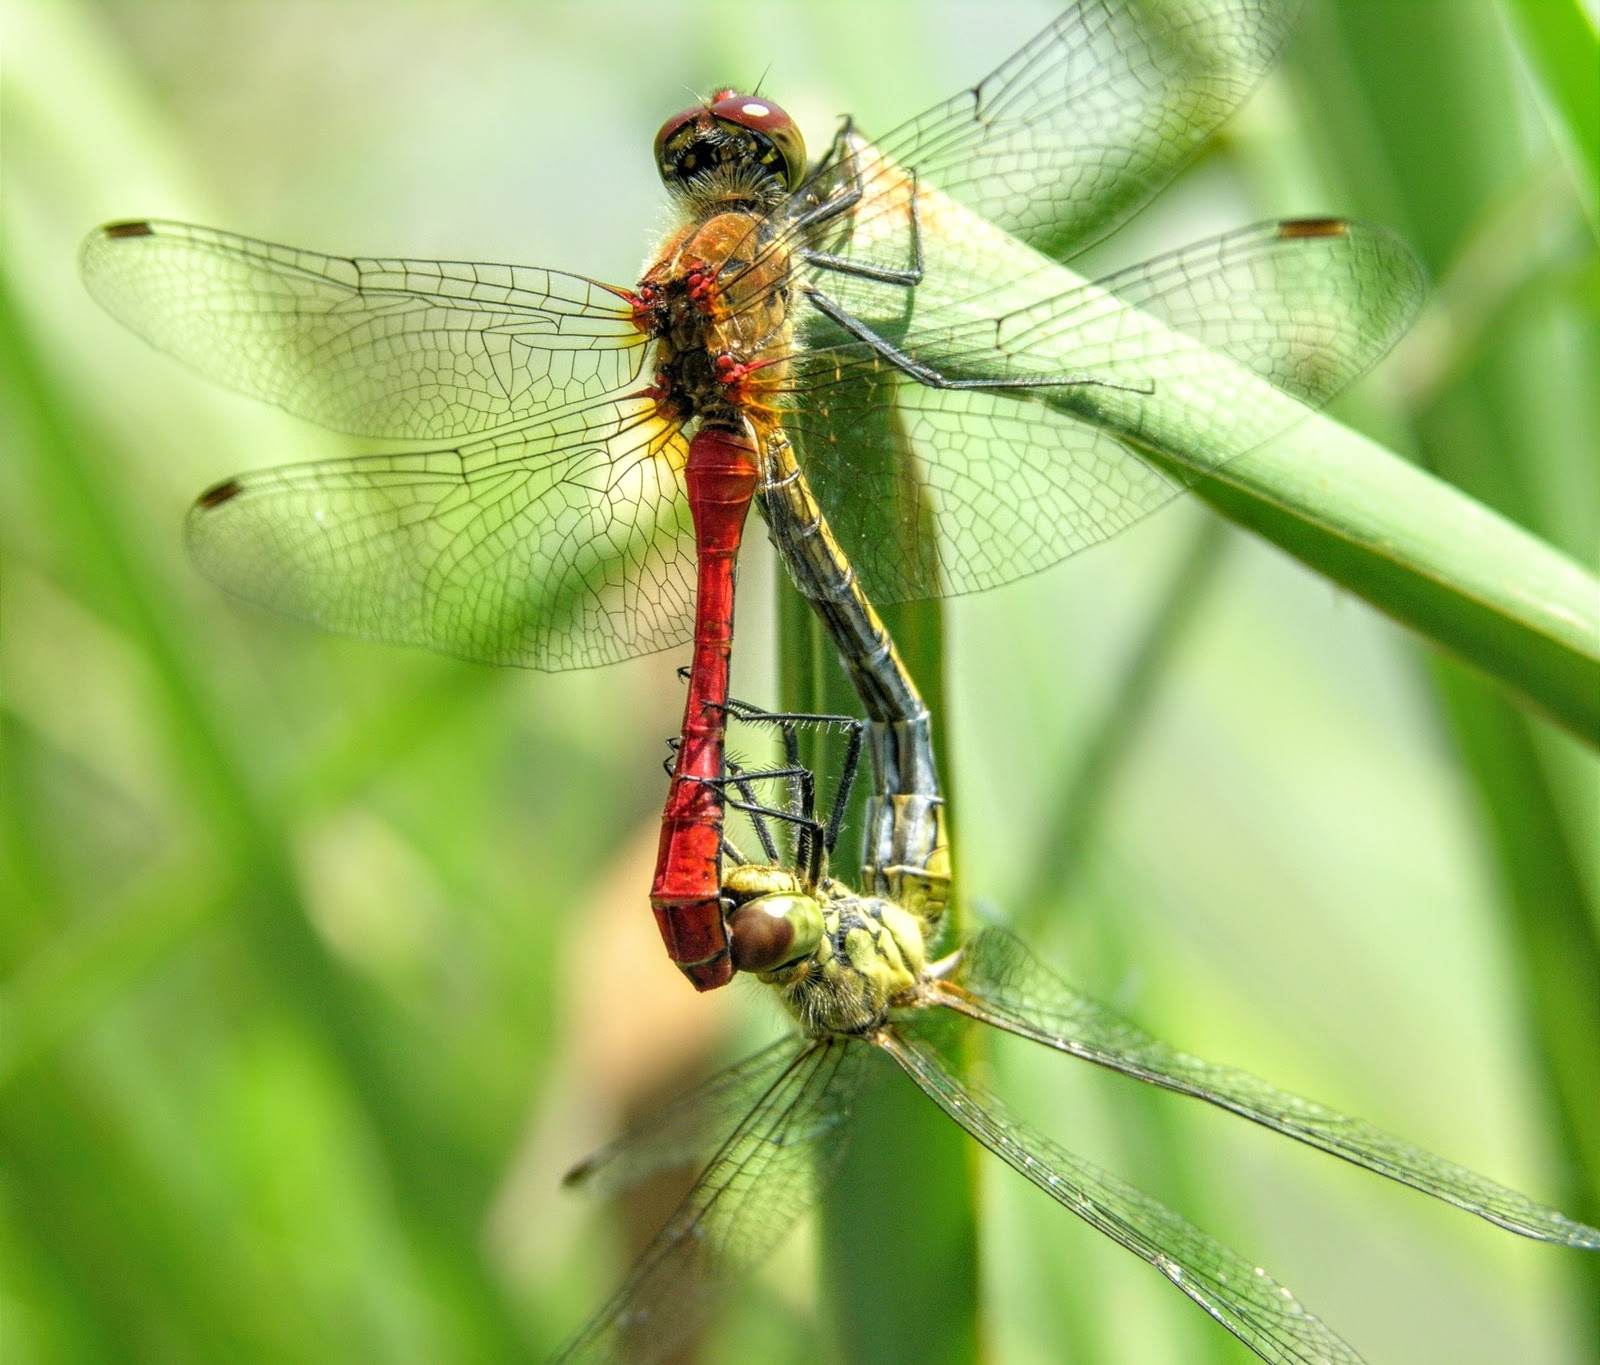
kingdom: Animalia
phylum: Arthropoda
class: Insecta
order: Odonata
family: Libellulidae
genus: Sympetrum
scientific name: Sympetrum sanguineum
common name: Ruddy darter
